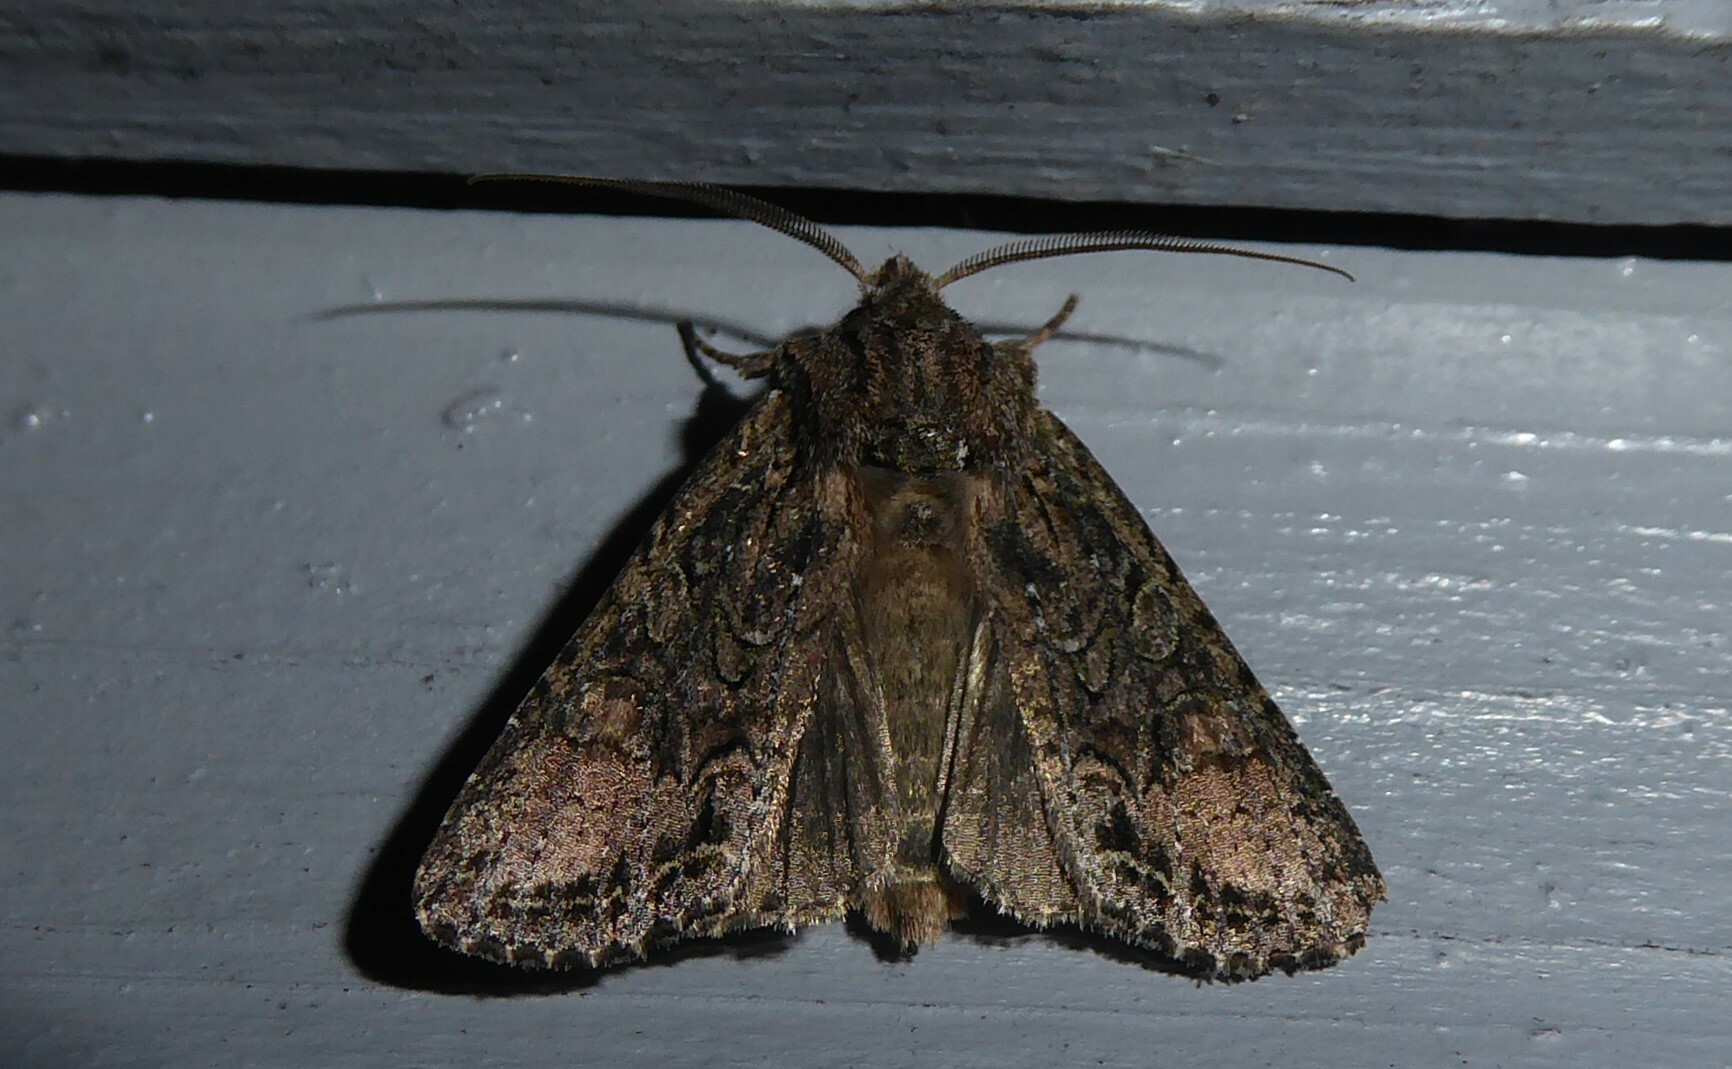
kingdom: Animalia
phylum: Arthropoda
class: Insecta
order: Lepidoptera
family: Noctuidae
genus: Ichneutica
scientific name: Ichneutica mutans
